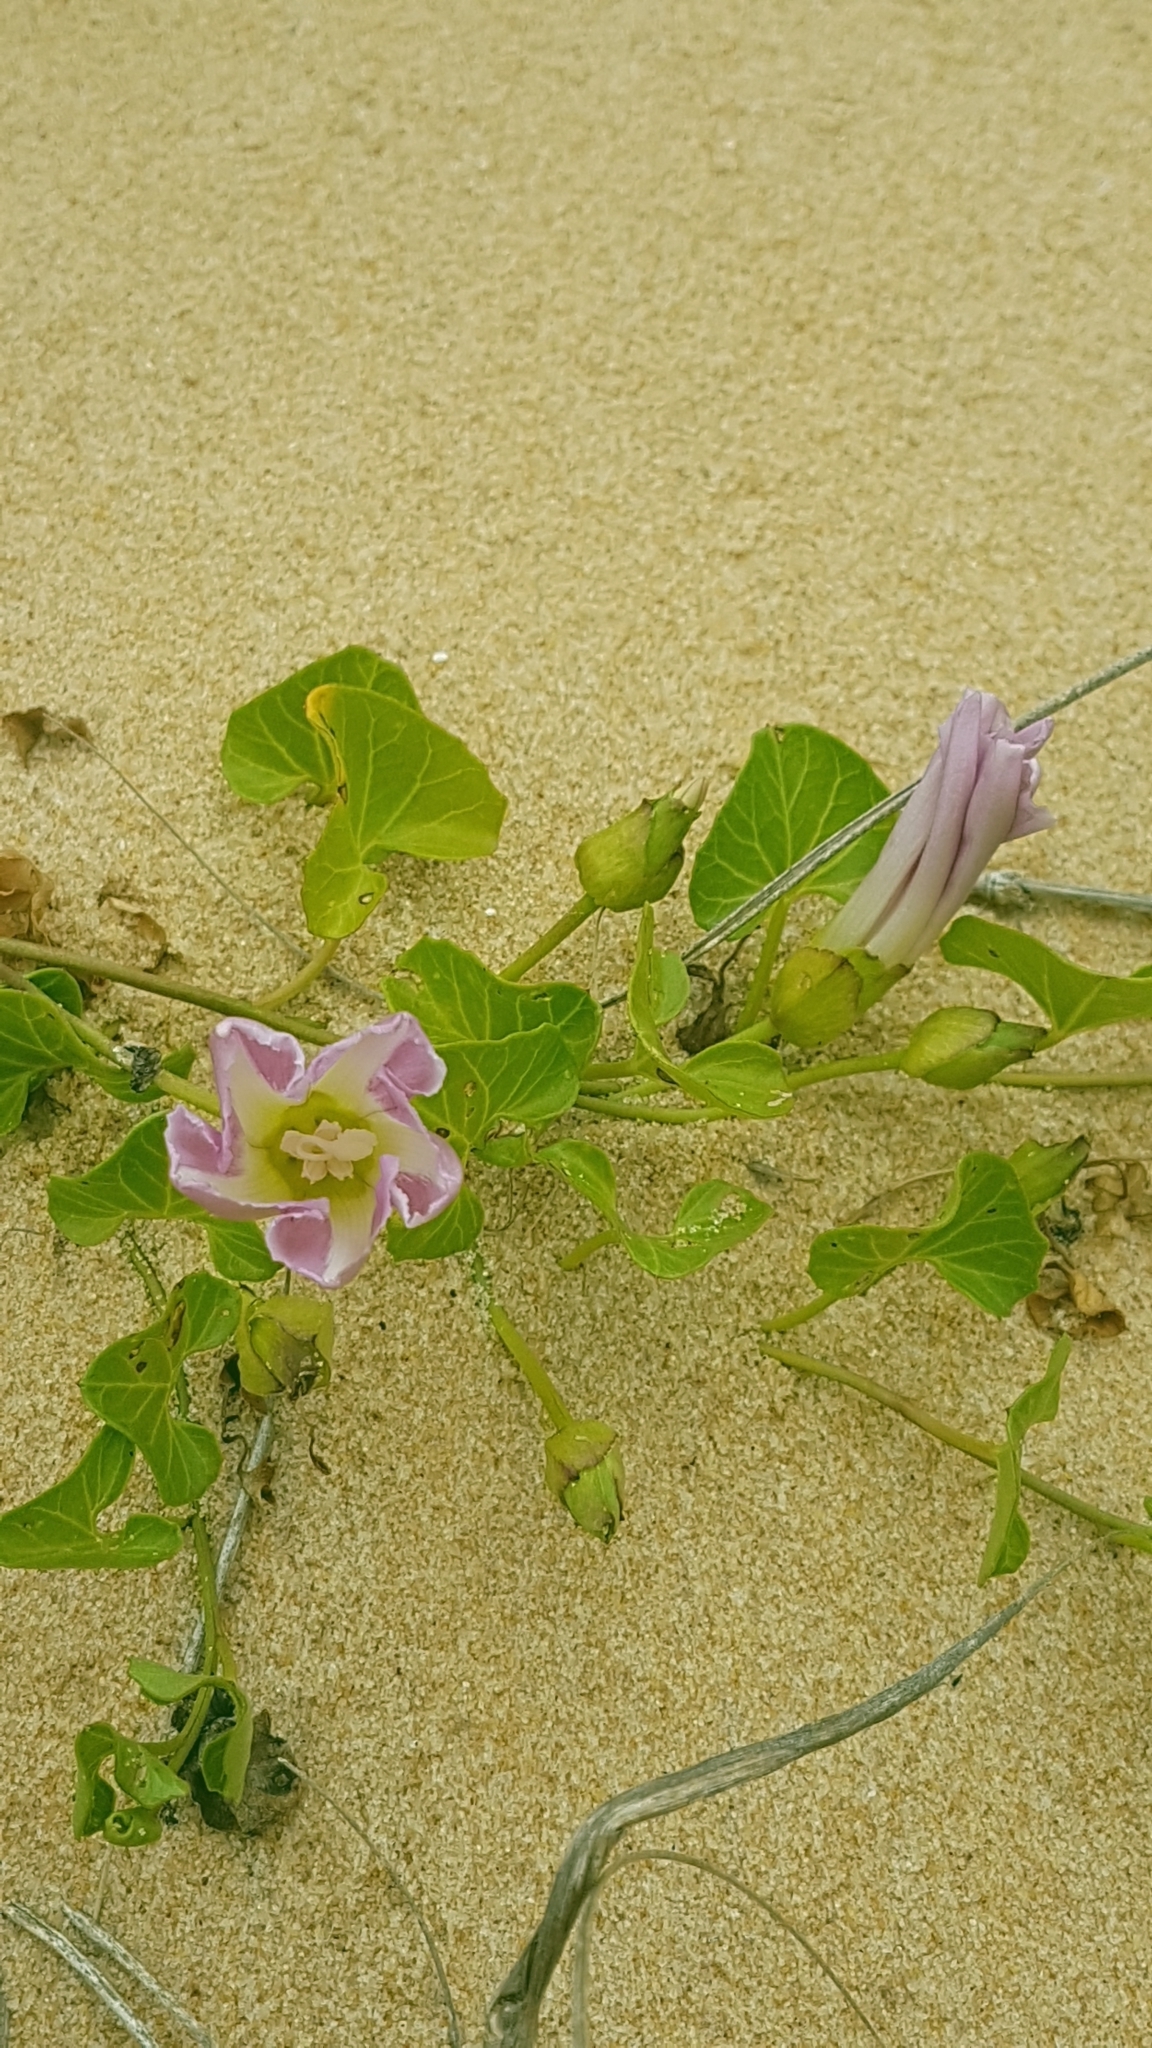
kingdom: Plantae
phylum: Tracheophyta
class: Magnoliopsida
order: Solanales
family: Convolvulaceae
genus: Calystegia
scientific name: Calystegia soldanella
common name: Sea bindweed
